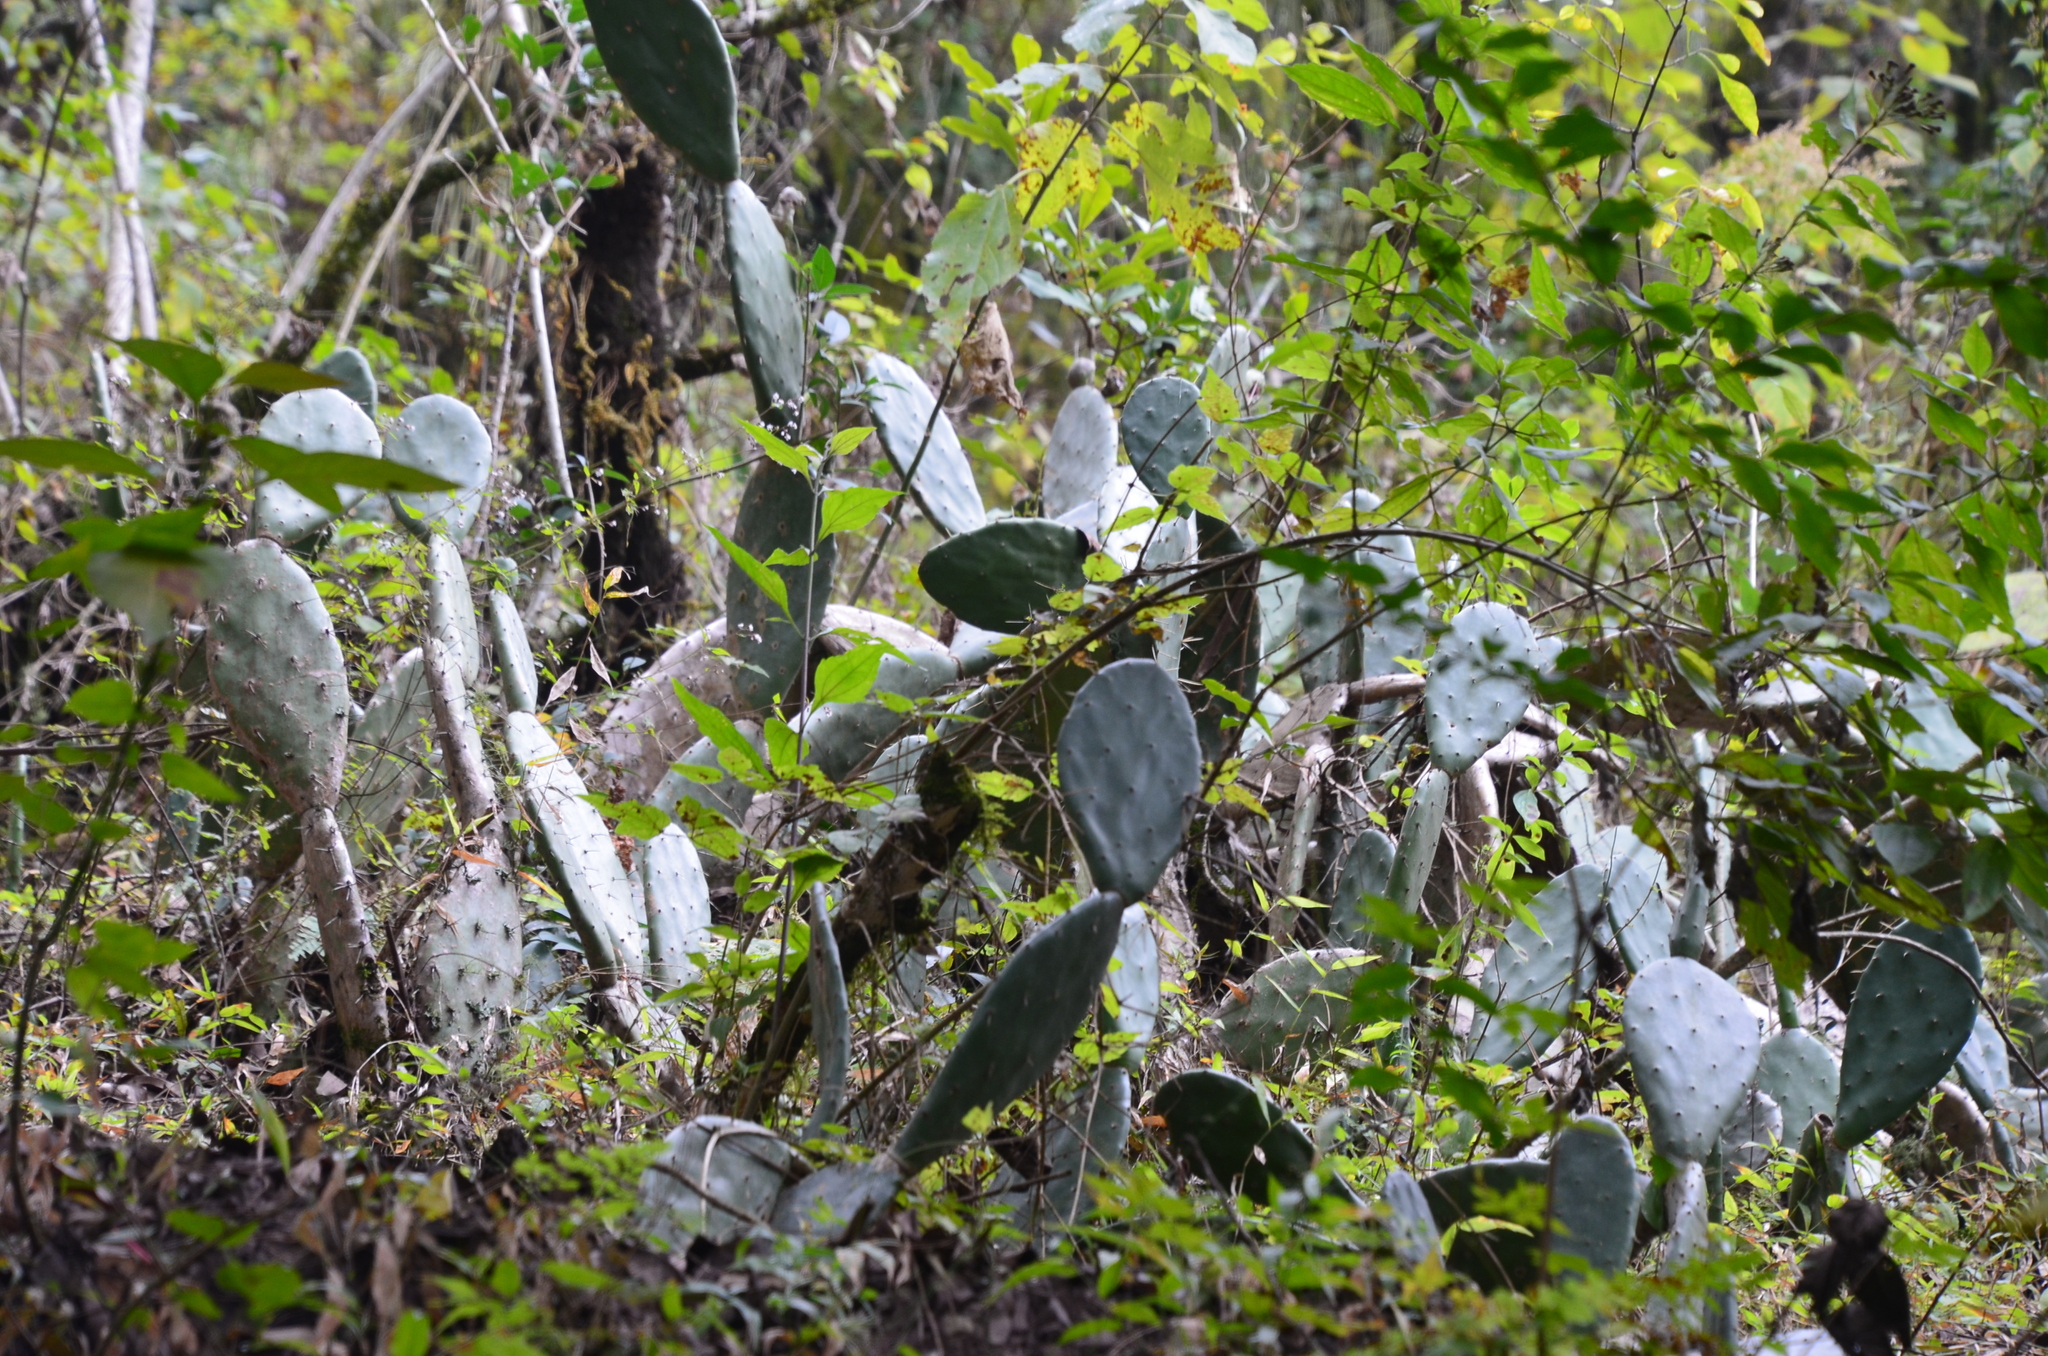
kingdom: Plantae
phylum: Tracheophyta
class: Magnoliopsida
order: Caryophyllales
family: Cactaceae
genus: Opuntia
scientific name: Opuntia ficus-indica
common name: Barbary fig
